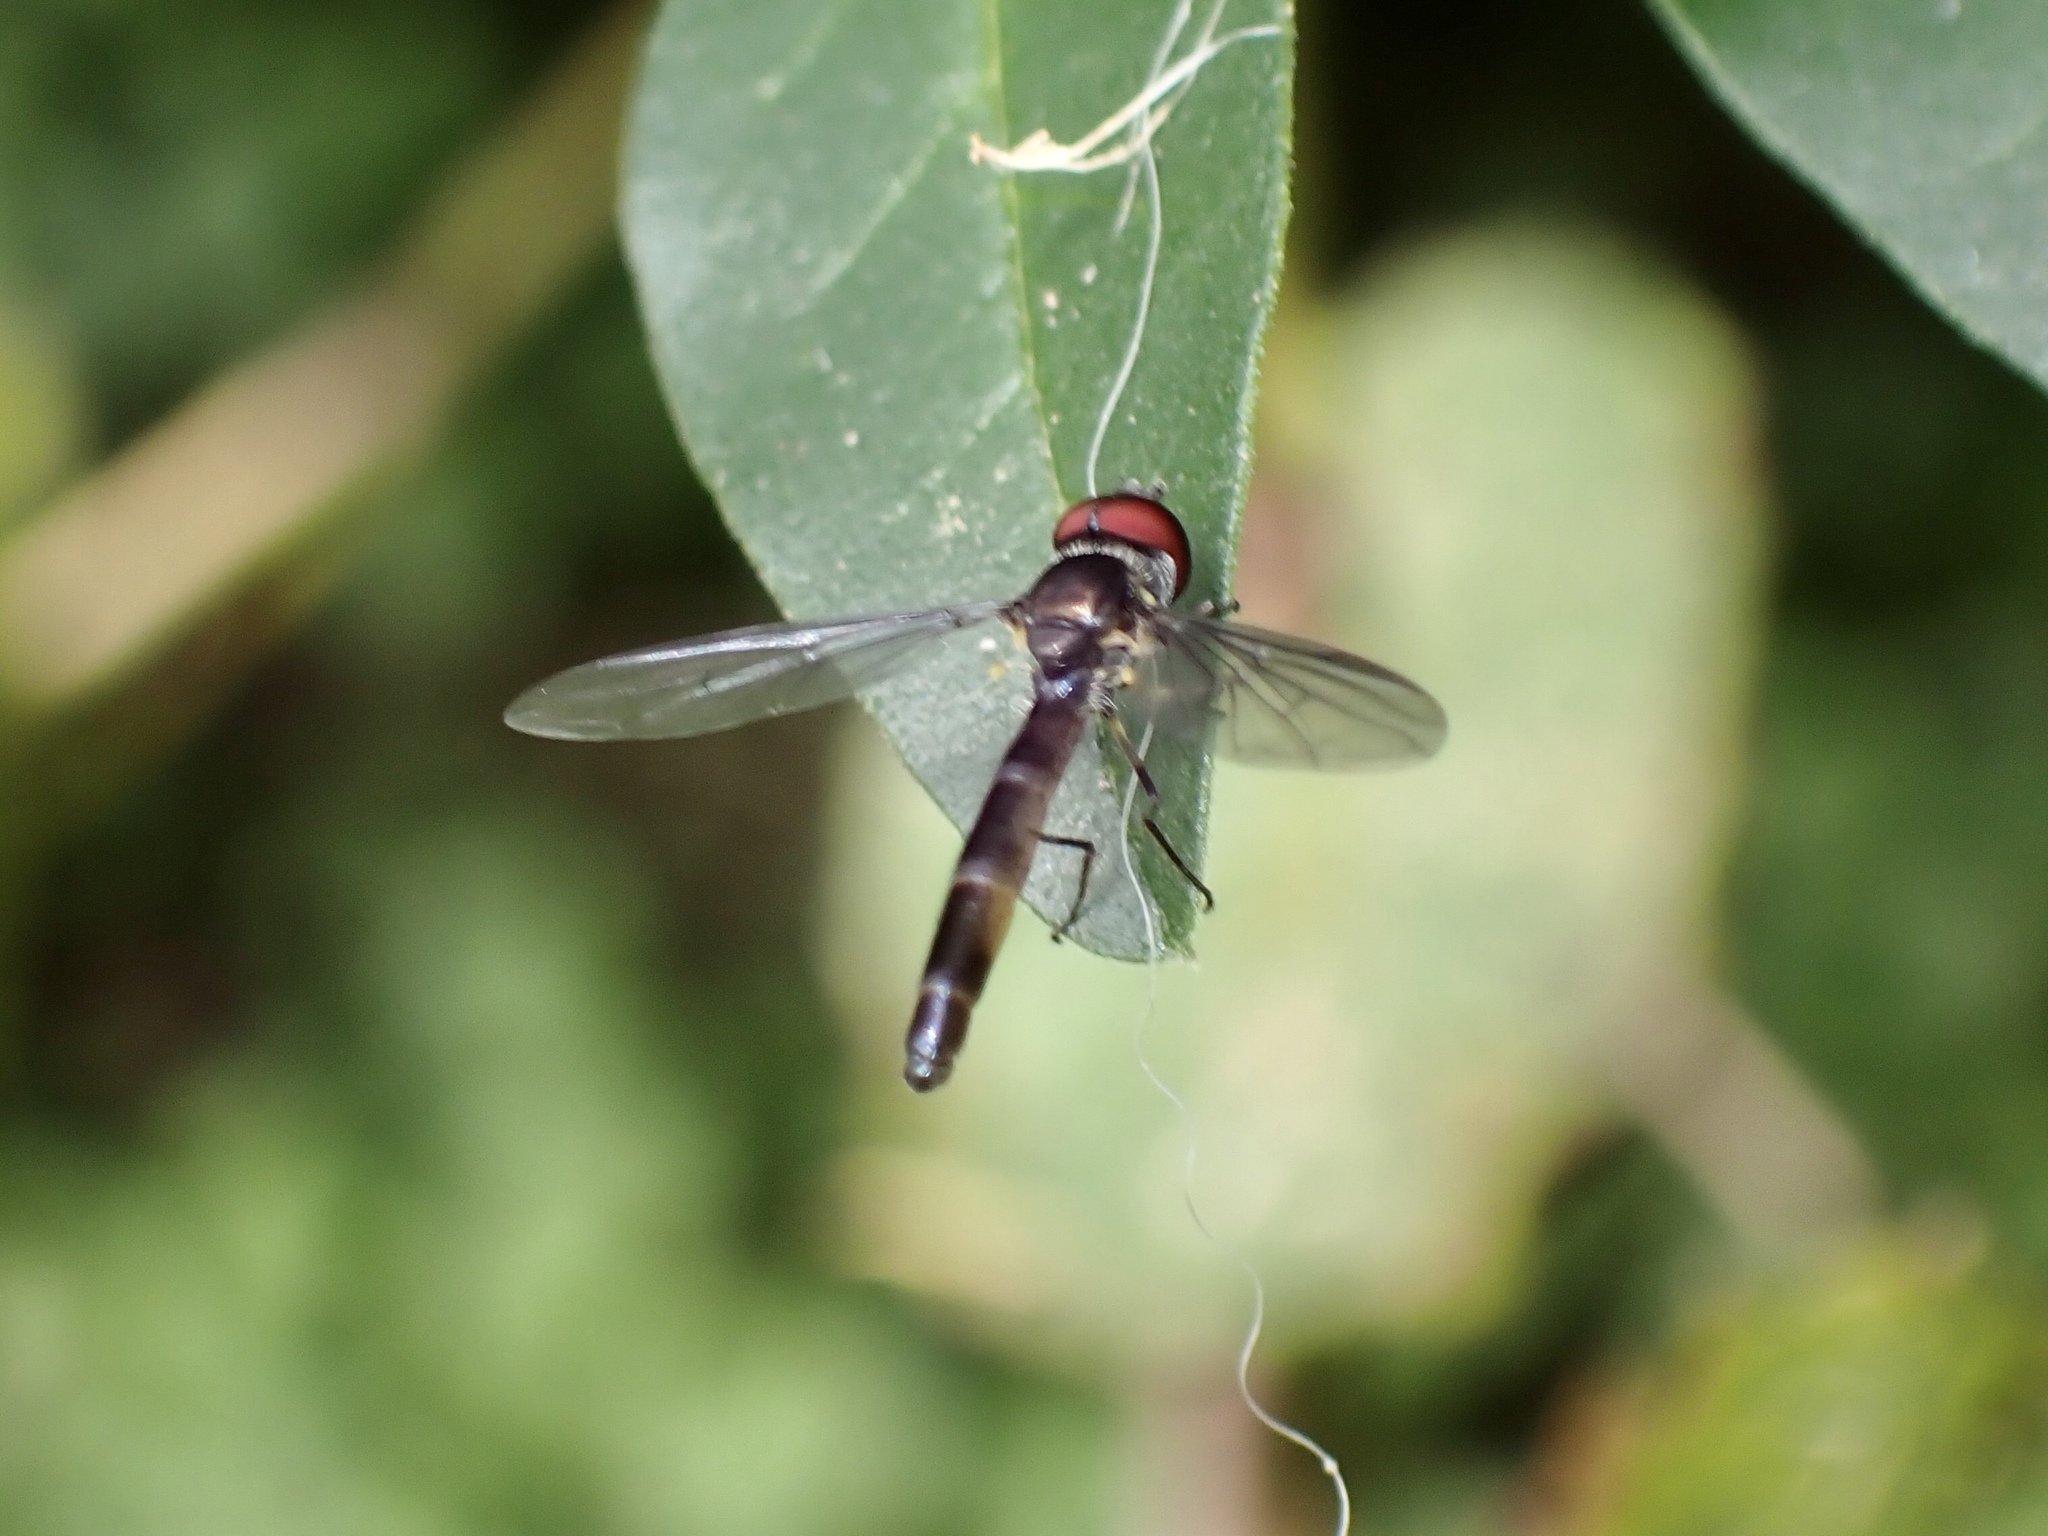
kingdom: Animalia
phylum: Arthropoda
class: Insecta
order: Diptera
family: Syrphidae
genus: Ocyptamus
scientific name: Ocyptamus fuscipennis
